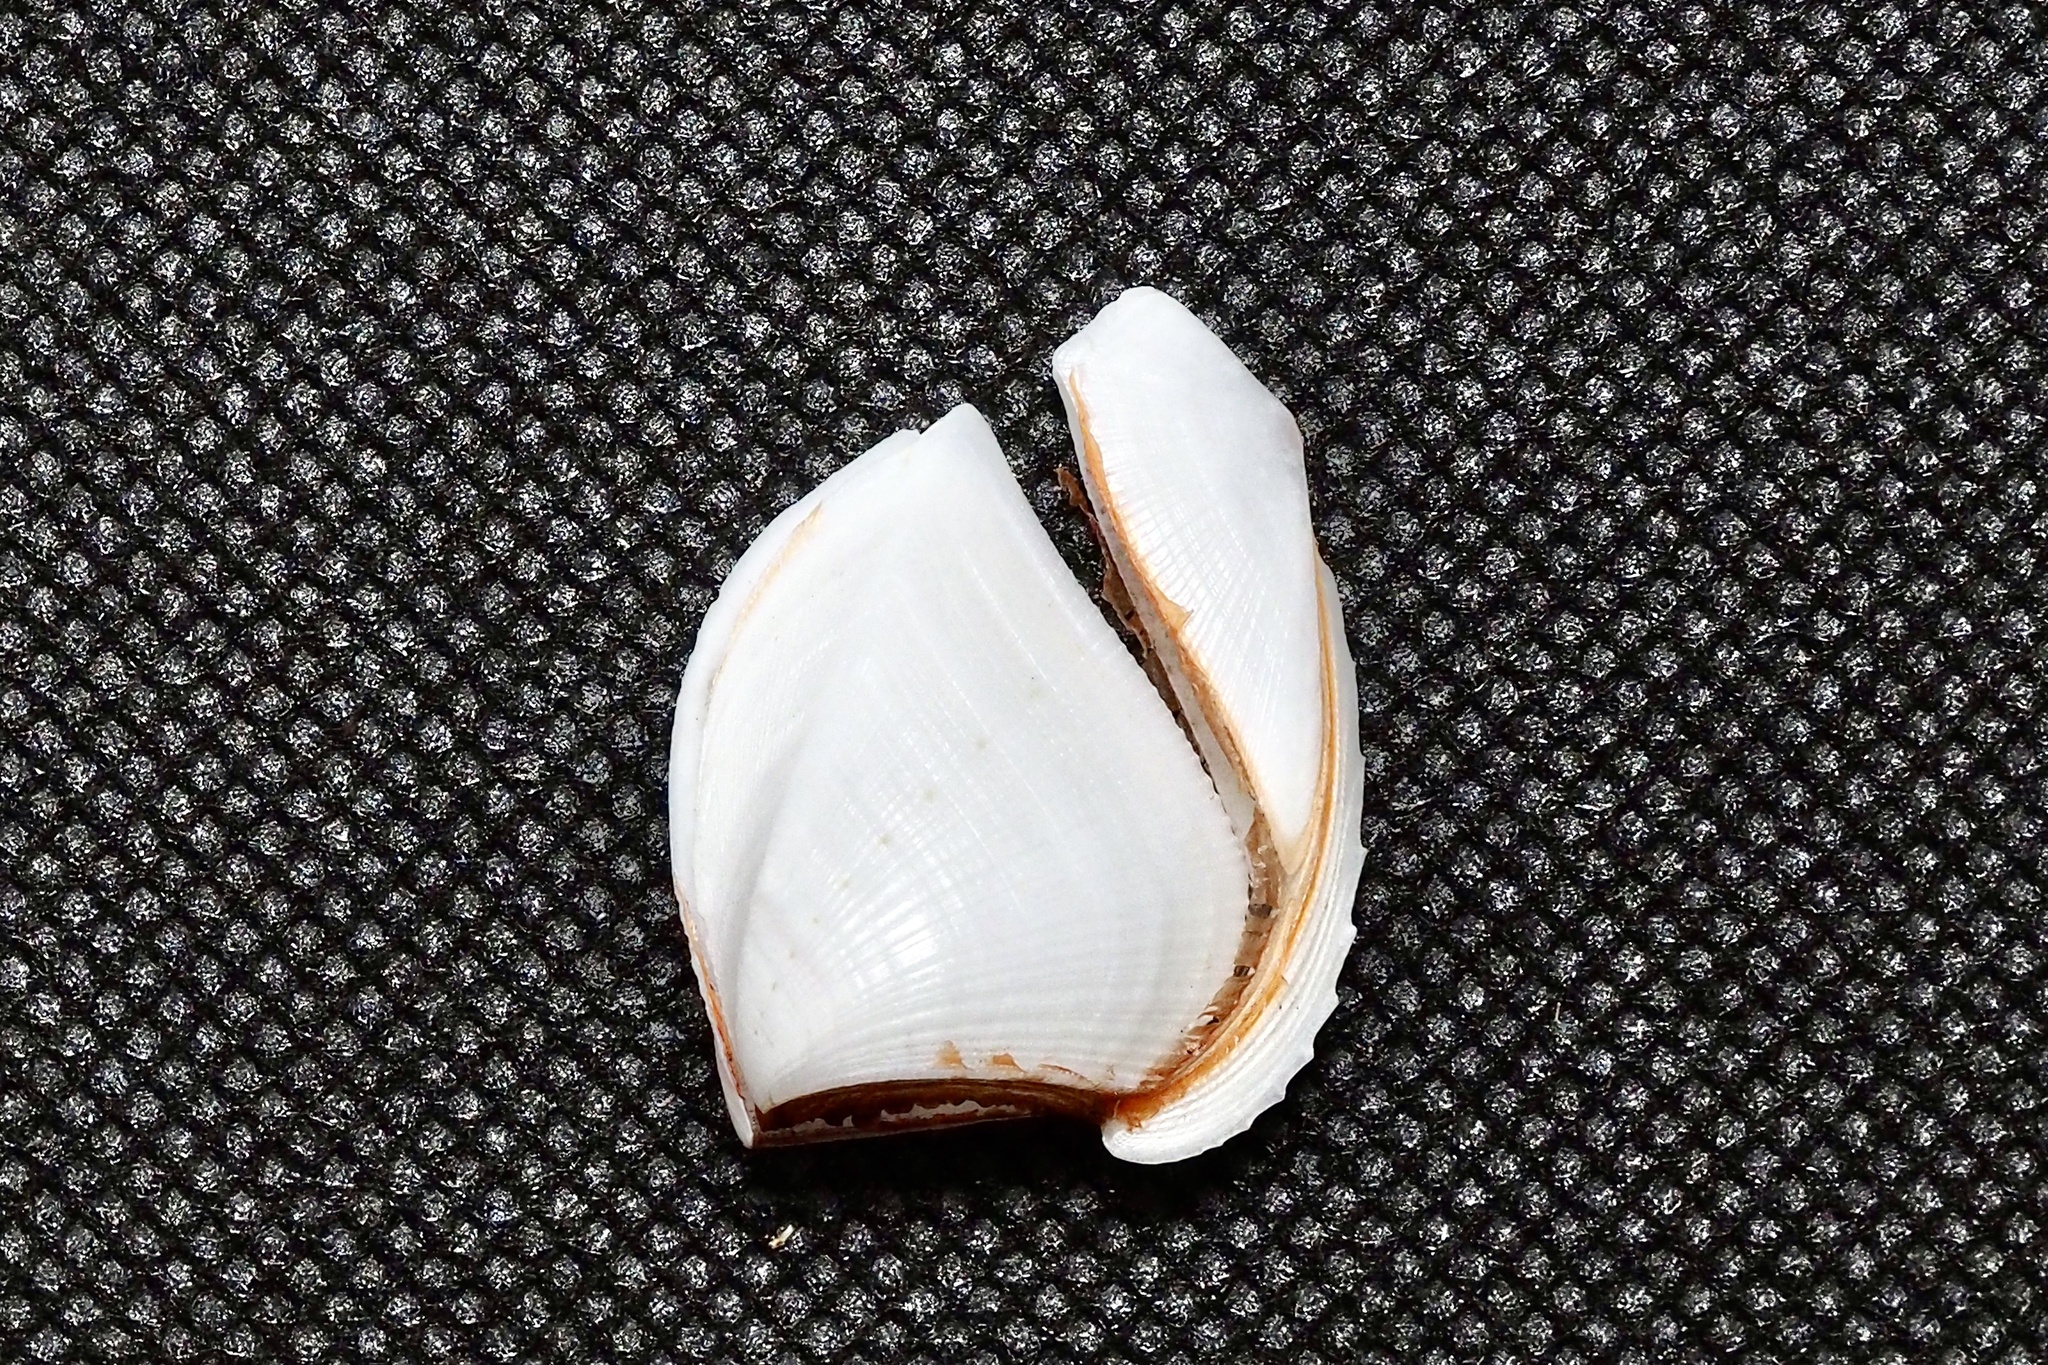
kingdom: Animalia
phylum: Arthropoda
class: Maxillopoda
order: Pedunculata
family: Lepadidae
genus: Lepas
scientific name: Lepas anserifera
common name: Goose barnacle
